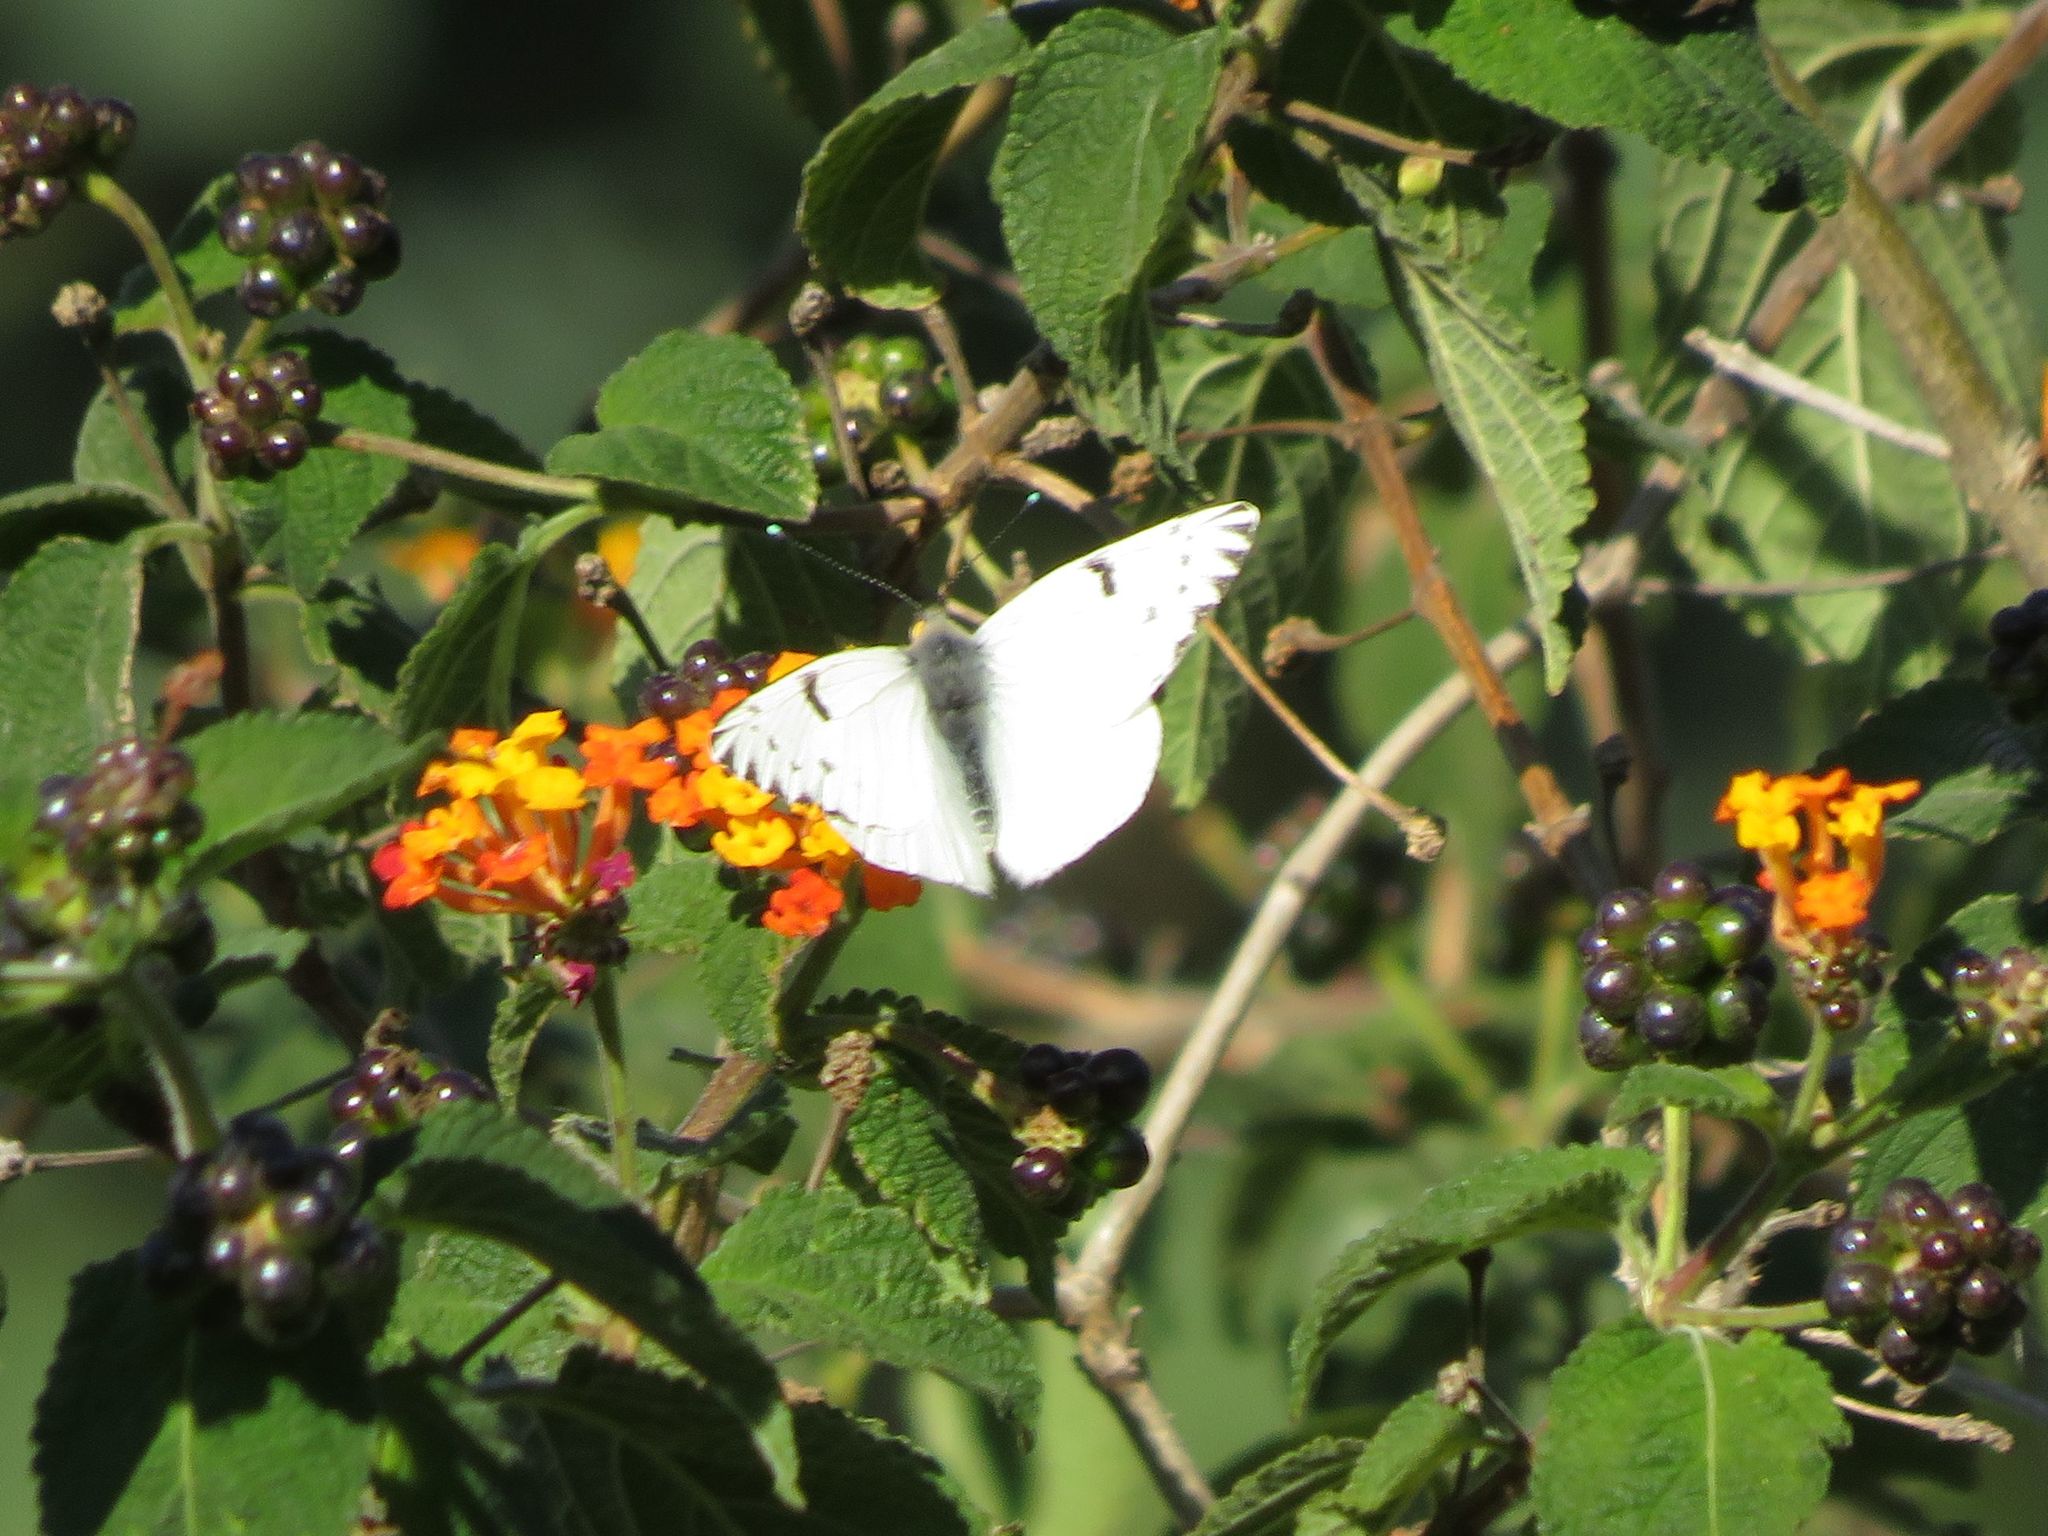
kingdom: Animalia
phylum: Arthropoda
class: Insecta
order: Lepidoptera
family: Pieridae
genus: Tatochila
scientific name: Tatochila autodice
